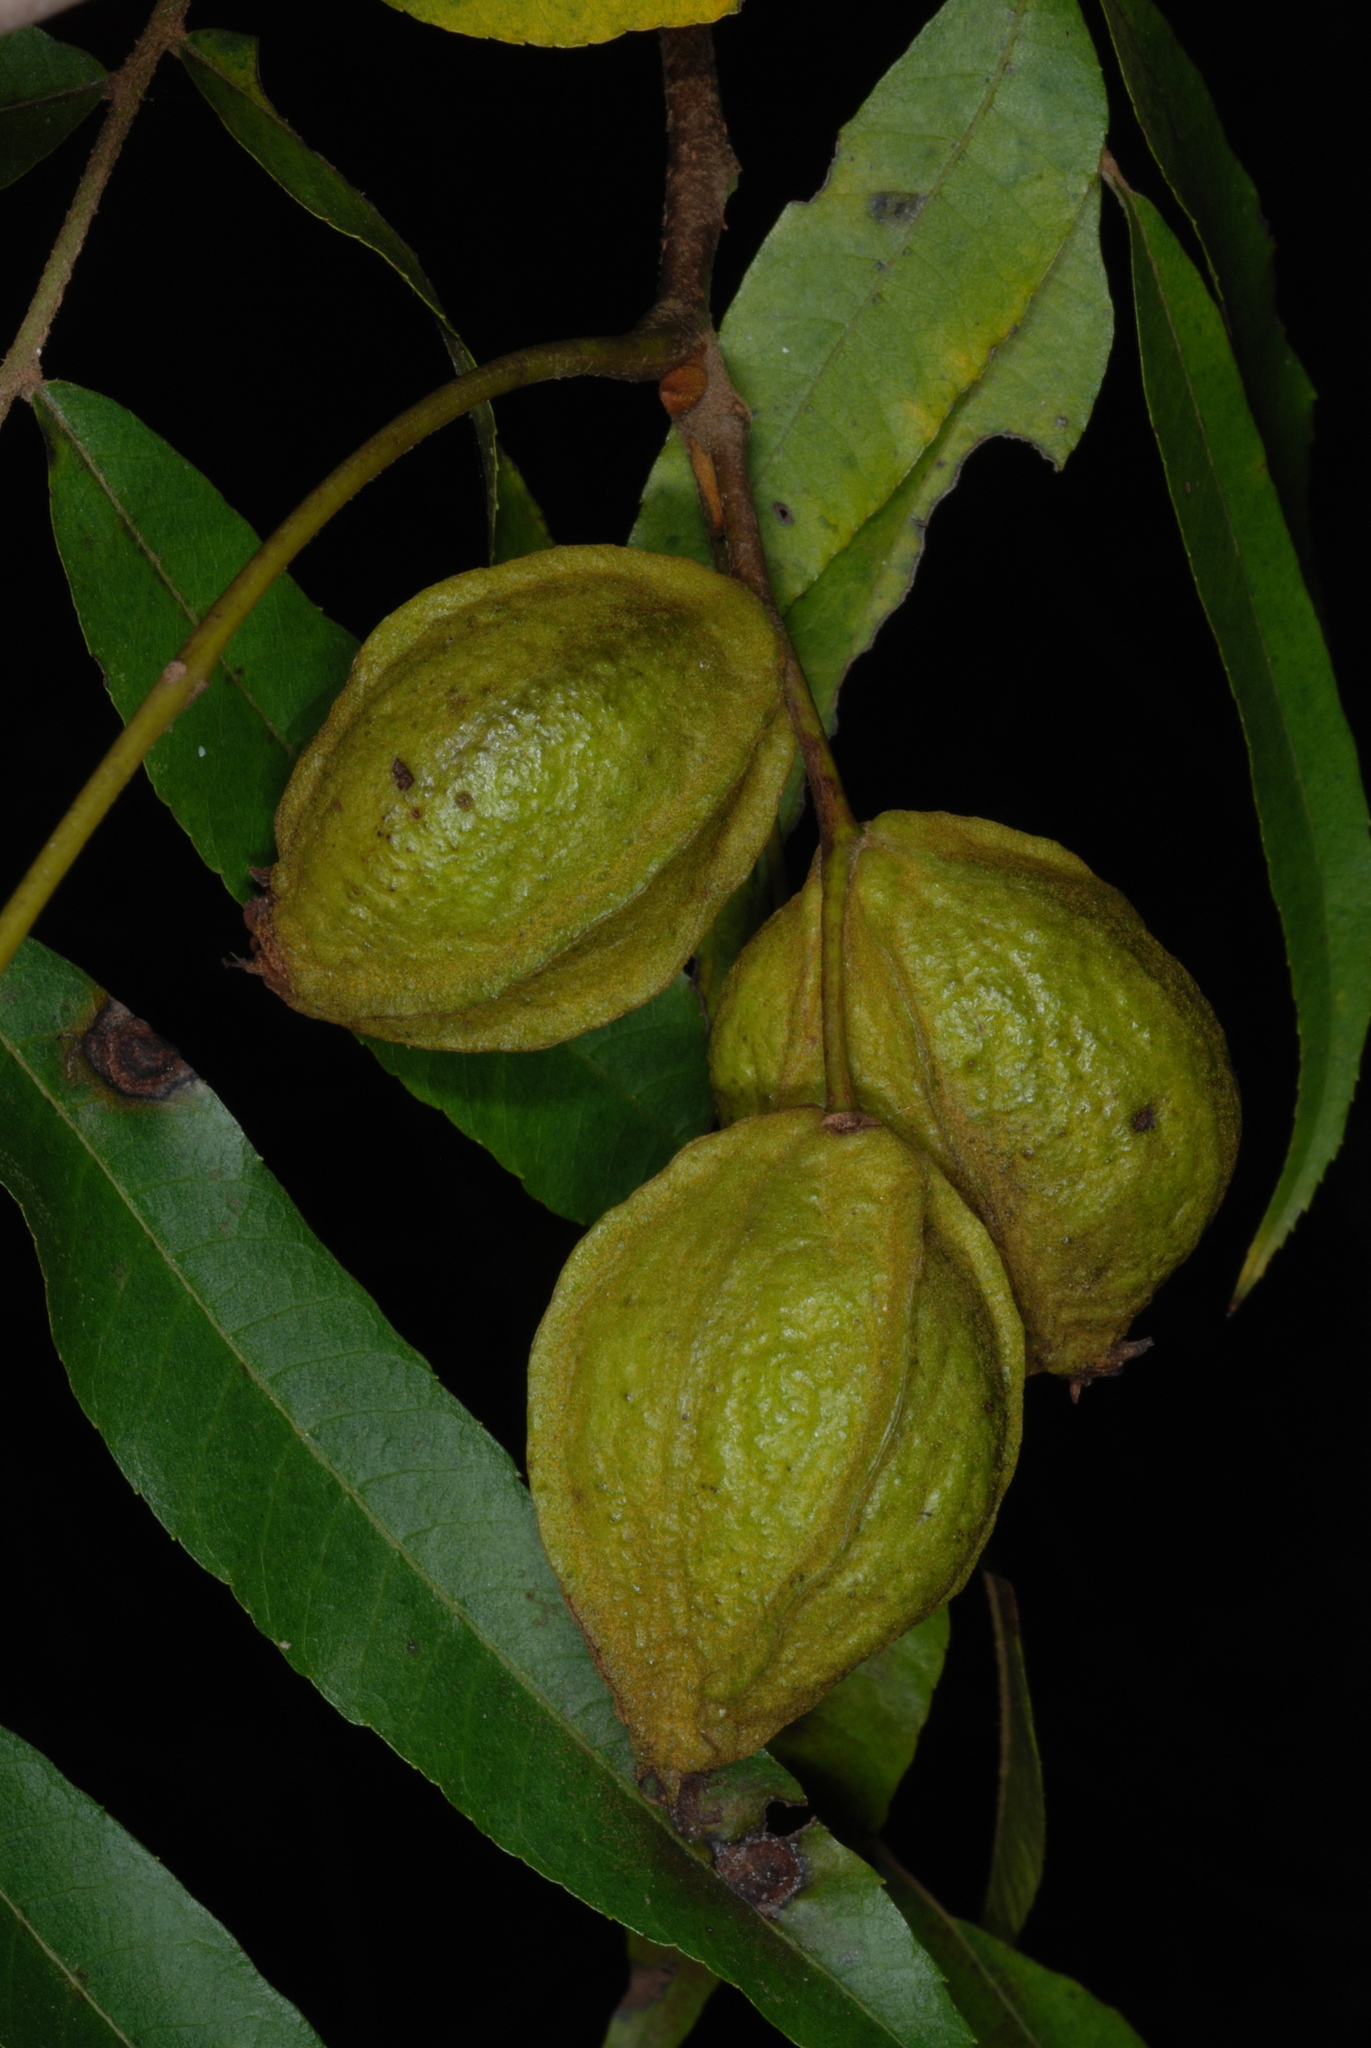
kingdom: Plantae
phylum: Tracheophyta
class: Magnoliopsida
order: Fagales
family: Juglandaceae
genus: Carya
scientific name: Carya aquatica
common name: Water hickory
